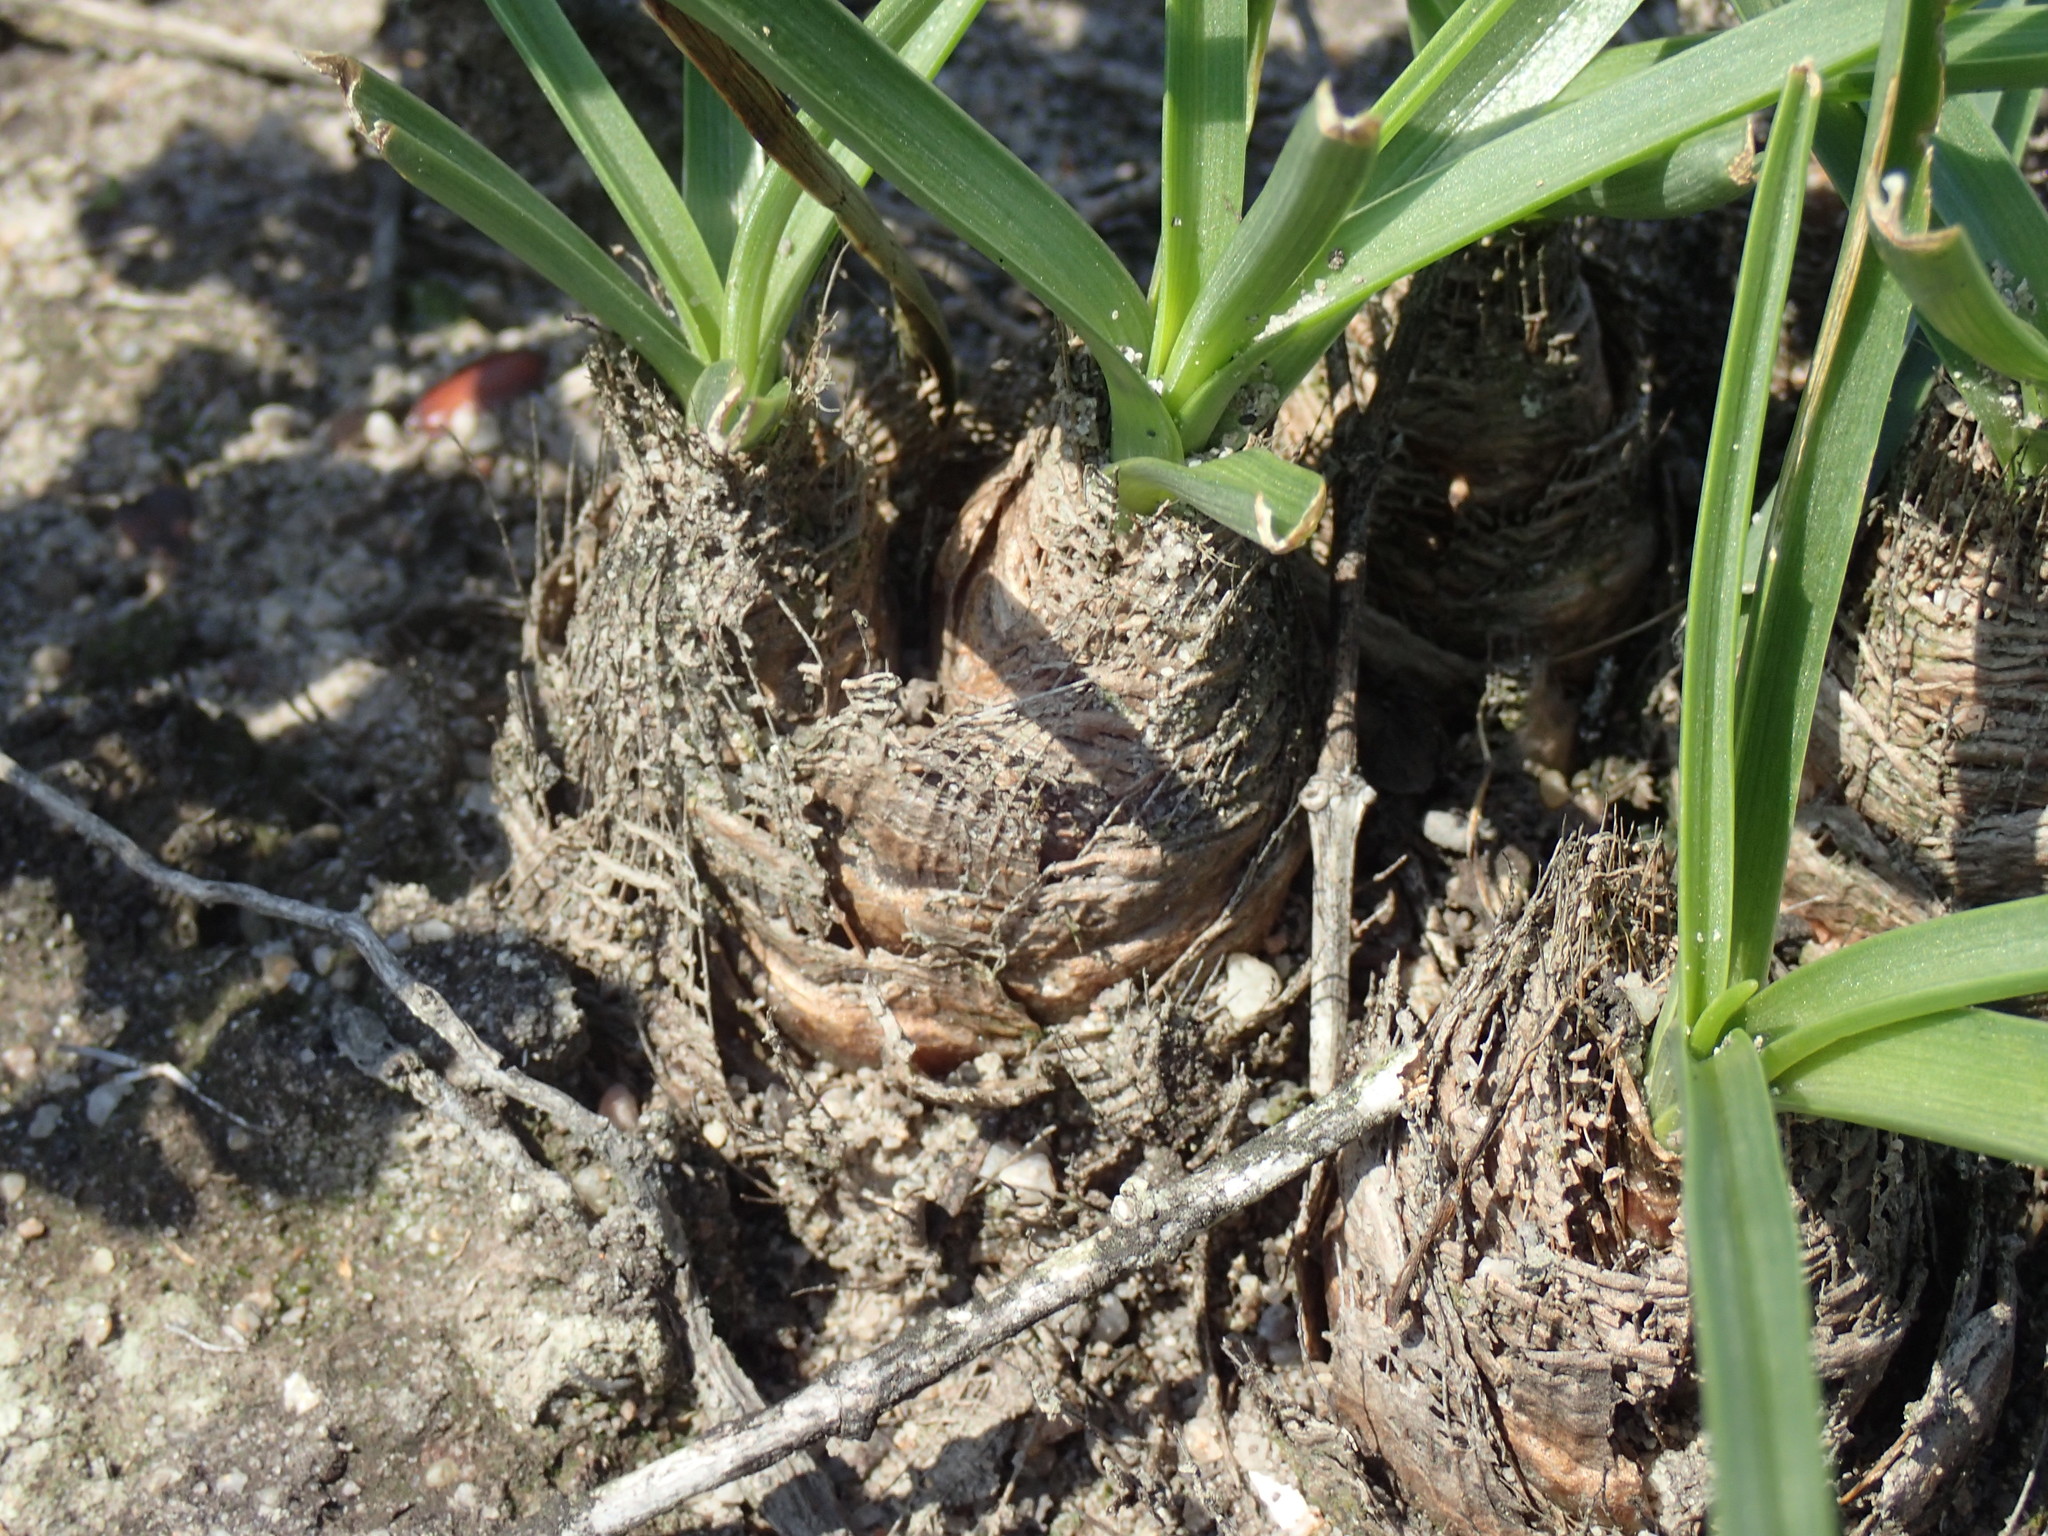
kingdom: Plantae
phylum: Tracheophyta
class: Liliopsida
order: Asparagales
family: Asparagaceae
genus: Albuca
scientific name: Albuca setosa
